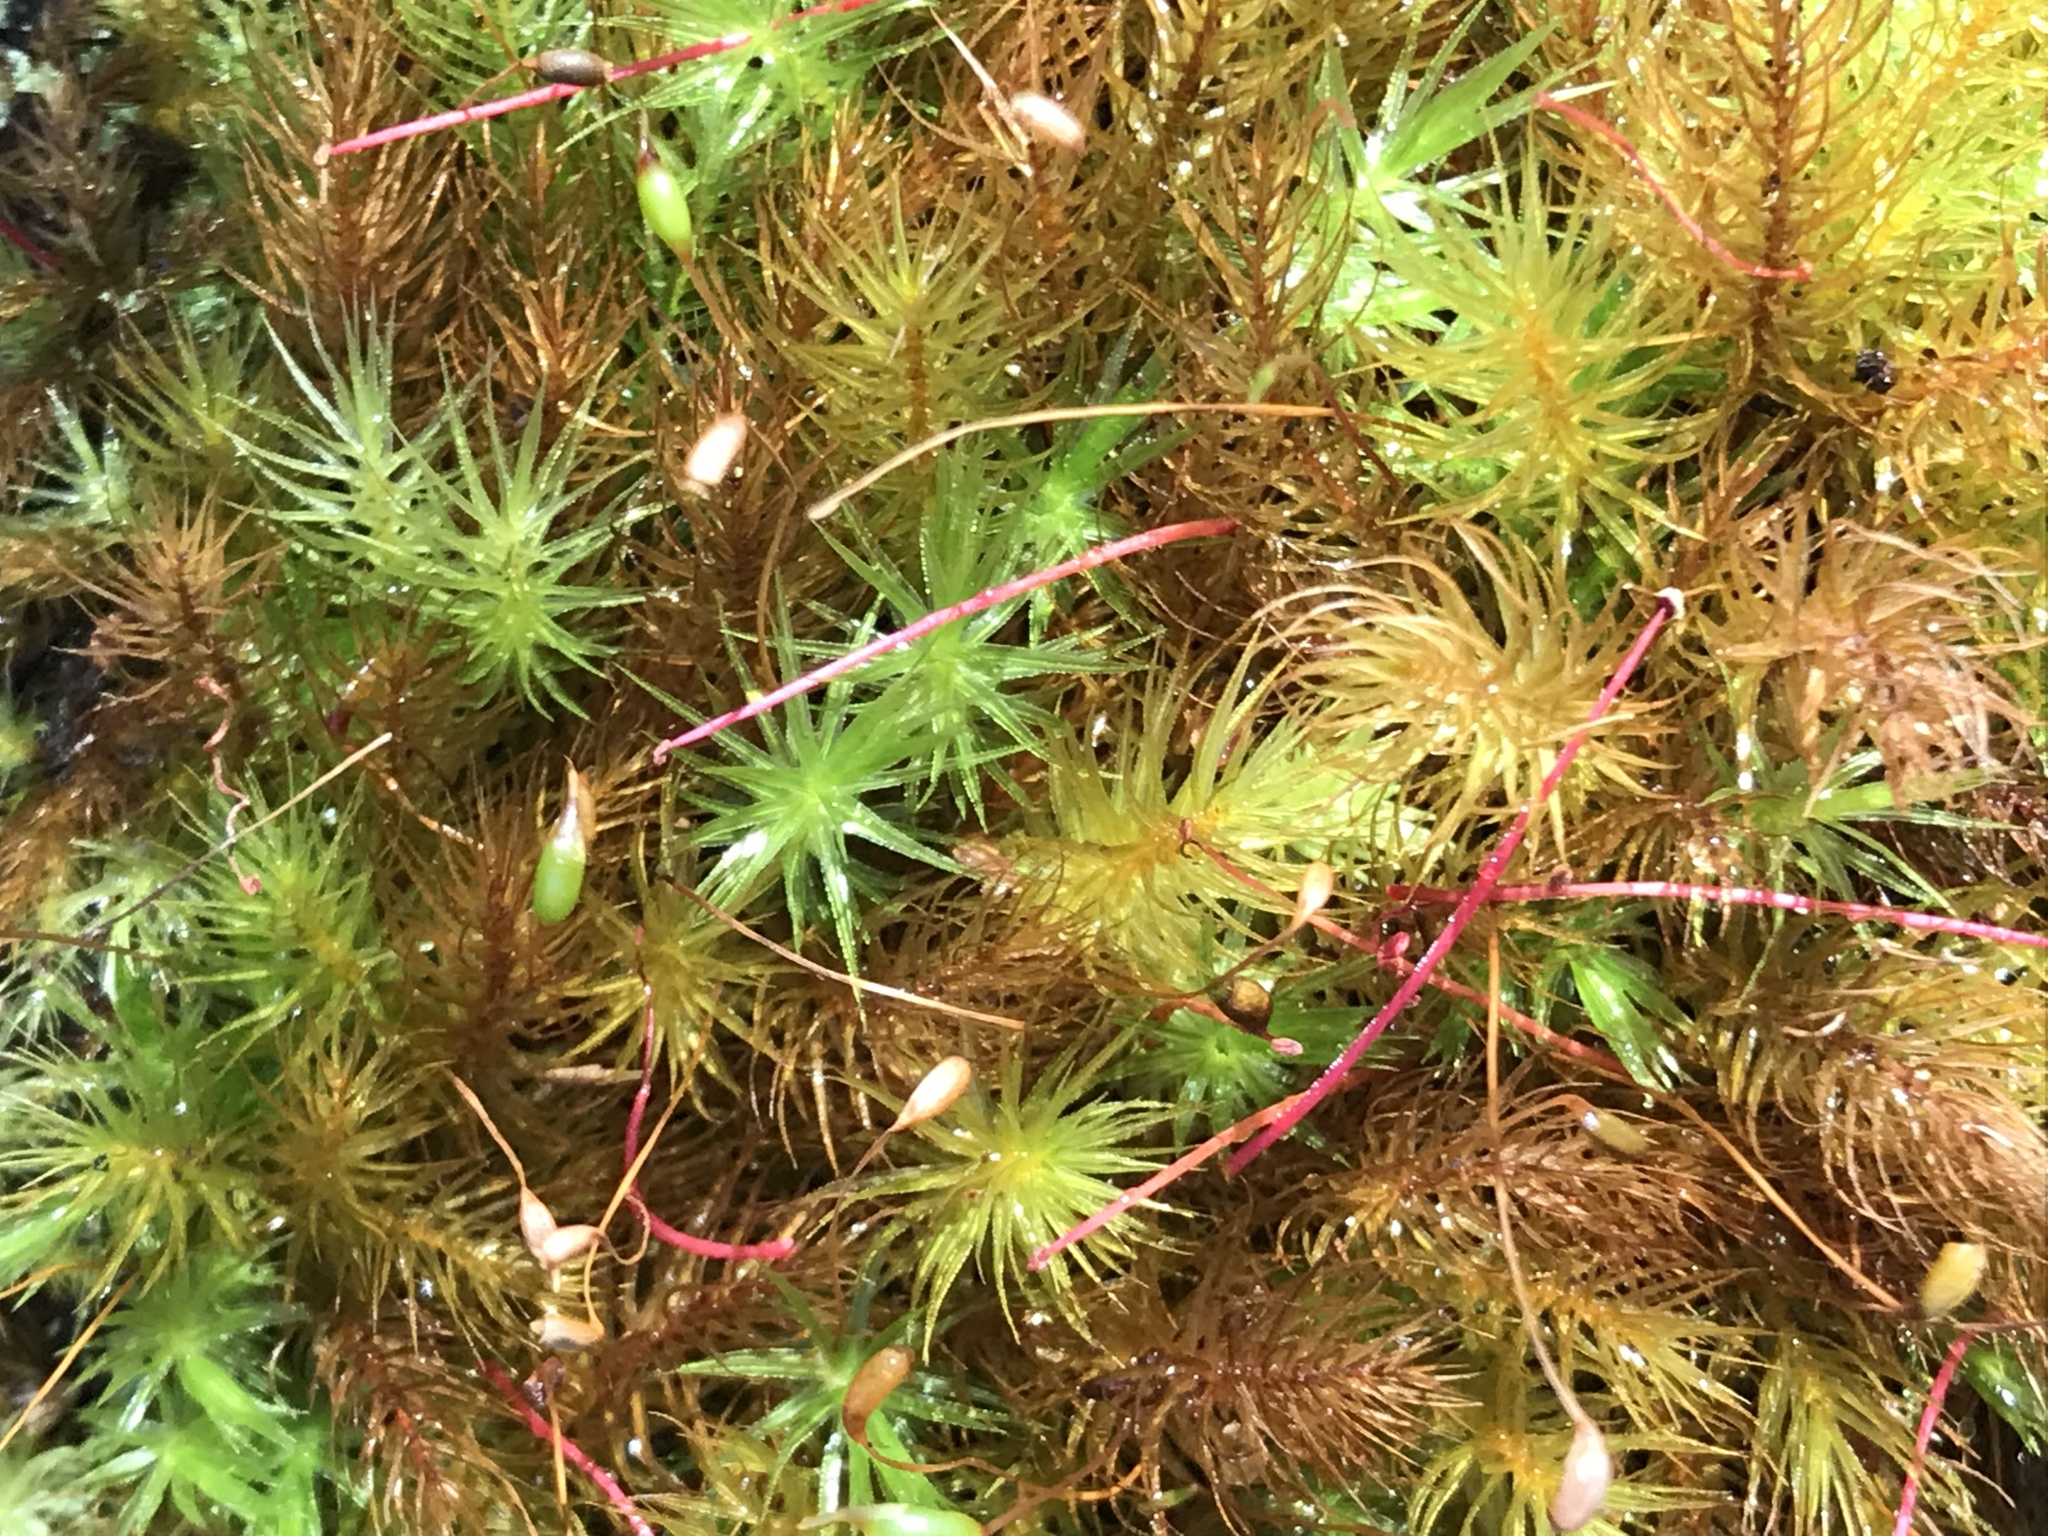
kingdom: Plantae
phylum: Bryophyta
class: Bryopsida
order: Rhizogoniales
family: Calomniaceae
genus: Pyrrhobryum
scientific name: Pyrrhobryum spiniforme
